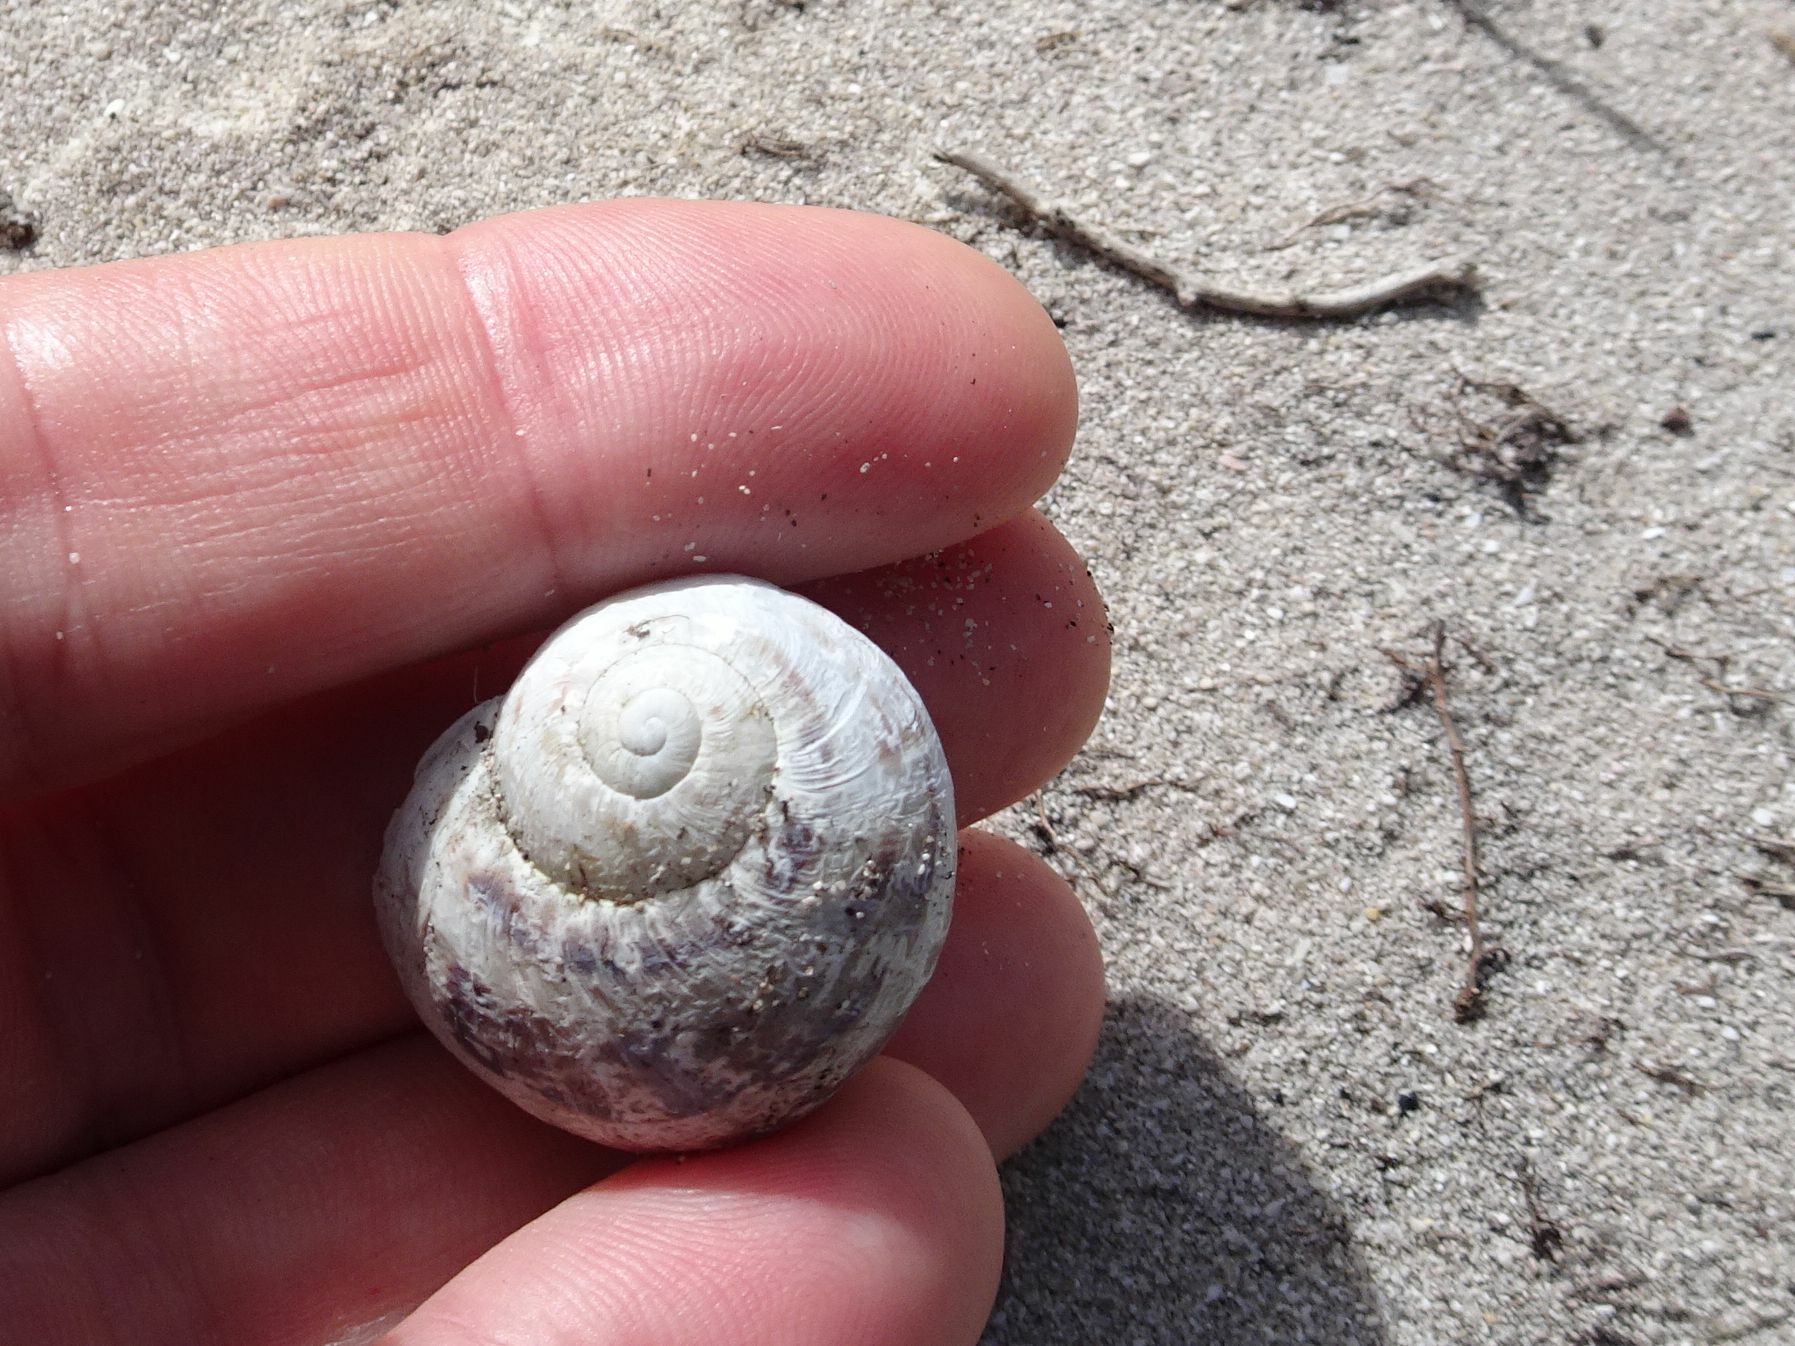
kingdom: Animalia
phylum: Mollusca
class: Gastropoda
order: Stylommatophora
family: Helicidae
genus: Cornu
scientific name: Cornu aspersum
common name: Brown garden snail
